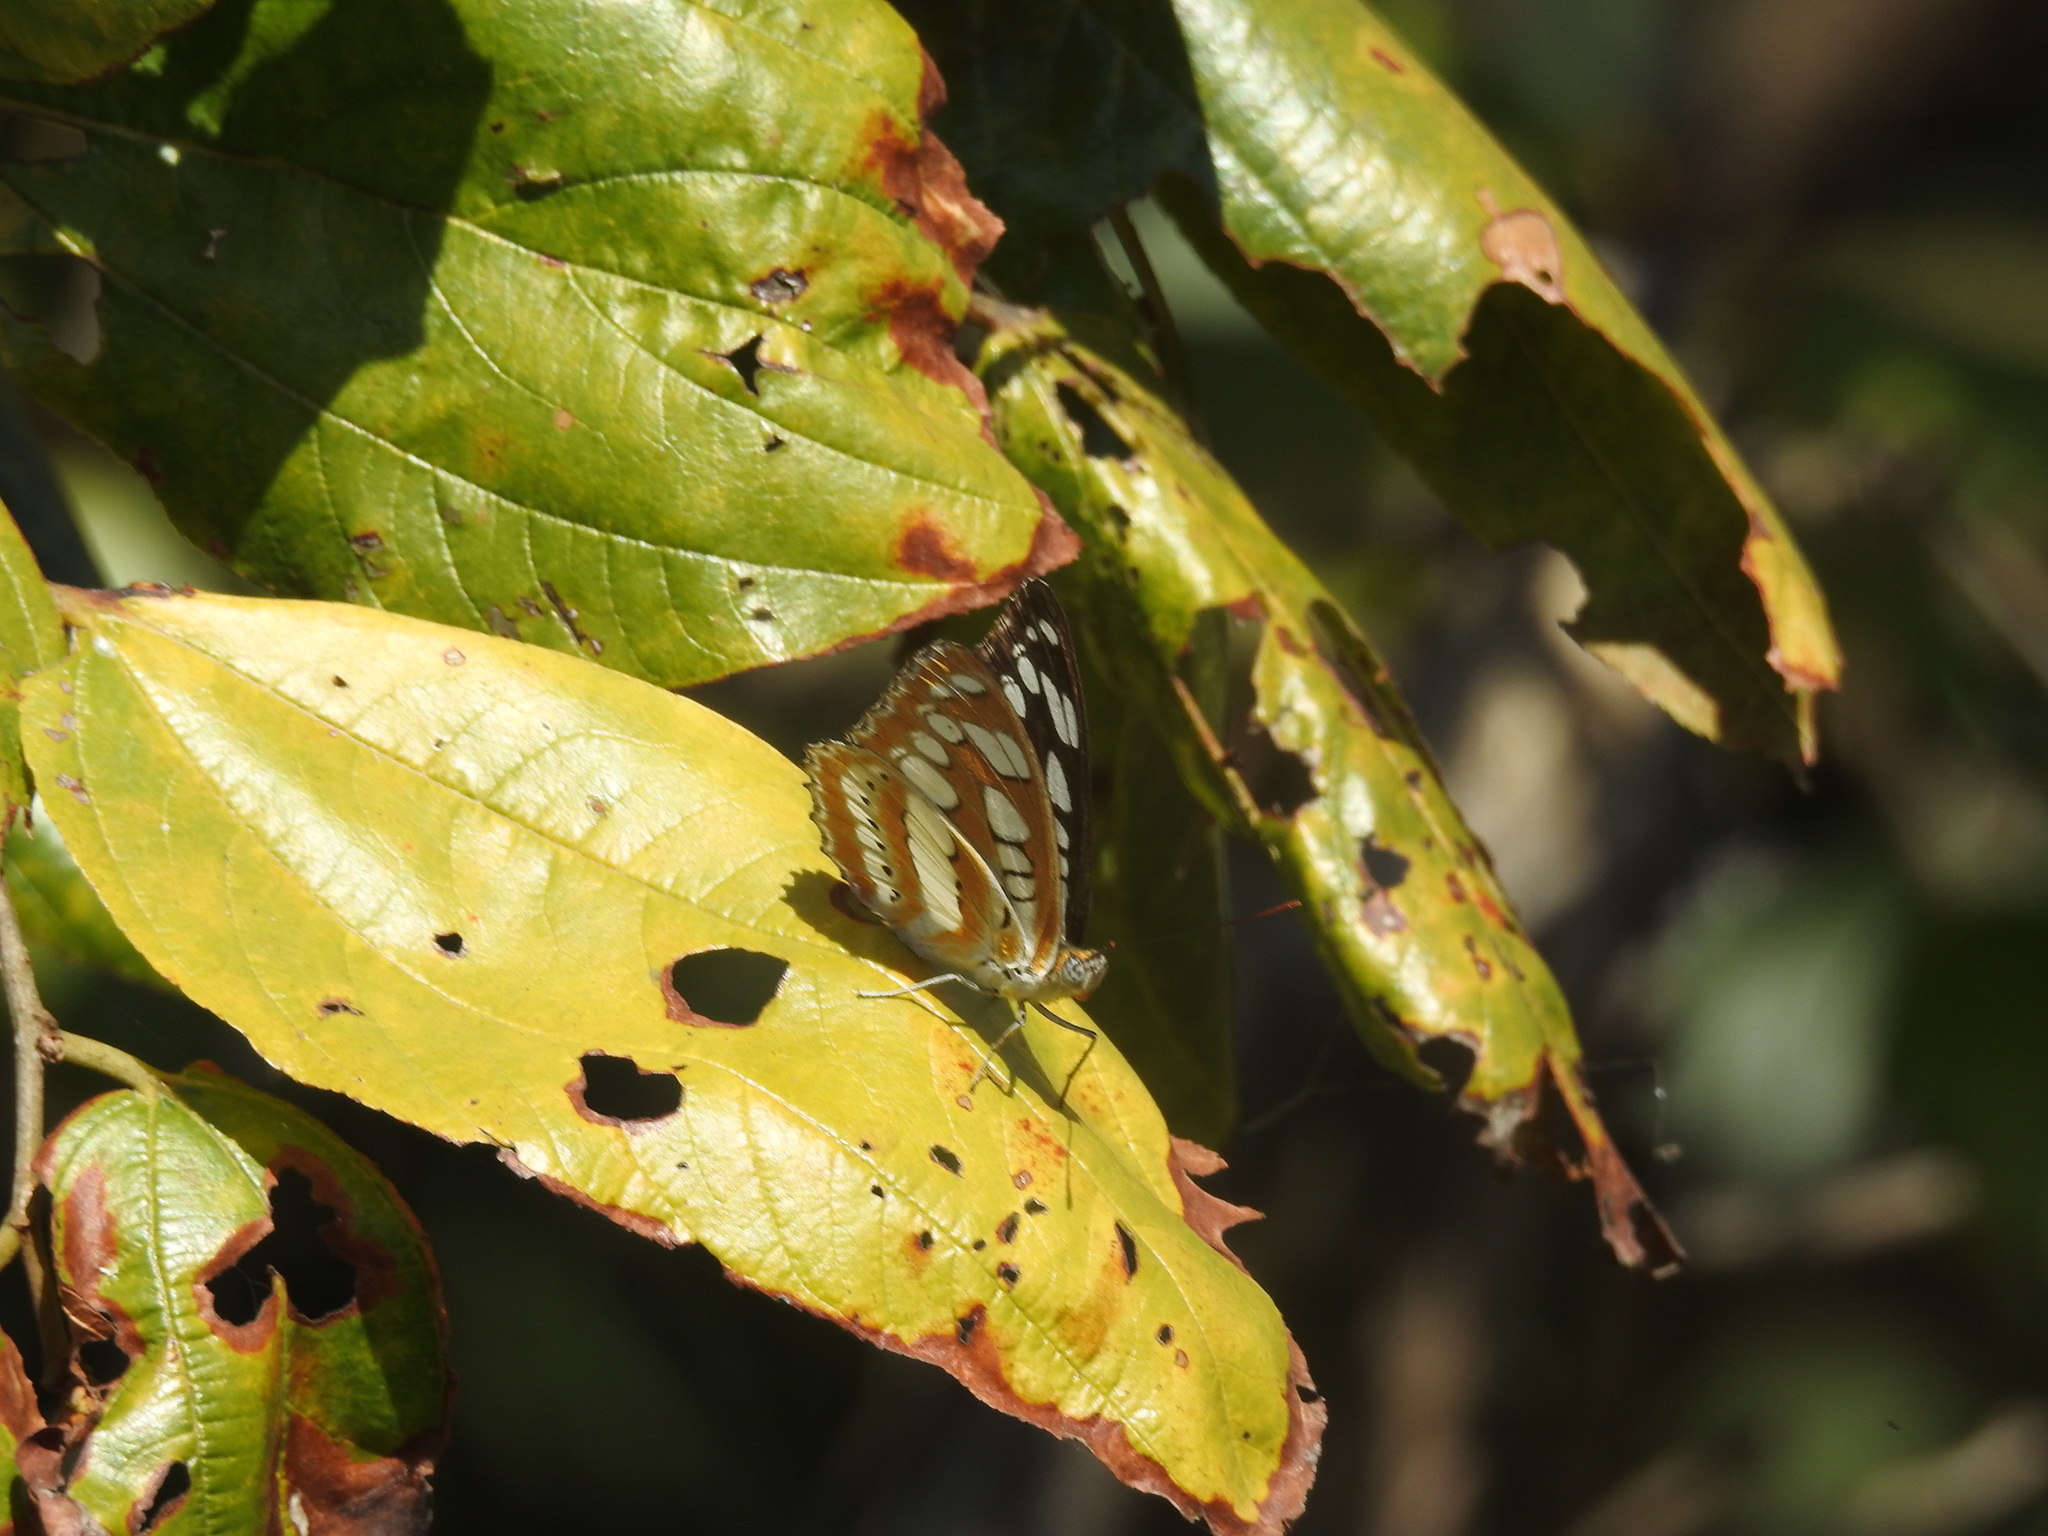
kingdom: Animalia
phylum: Arthropoda
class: Insecta
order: Lepidoptera
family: Nymphalidae
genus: Parathyma
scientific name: Parathyma perius
